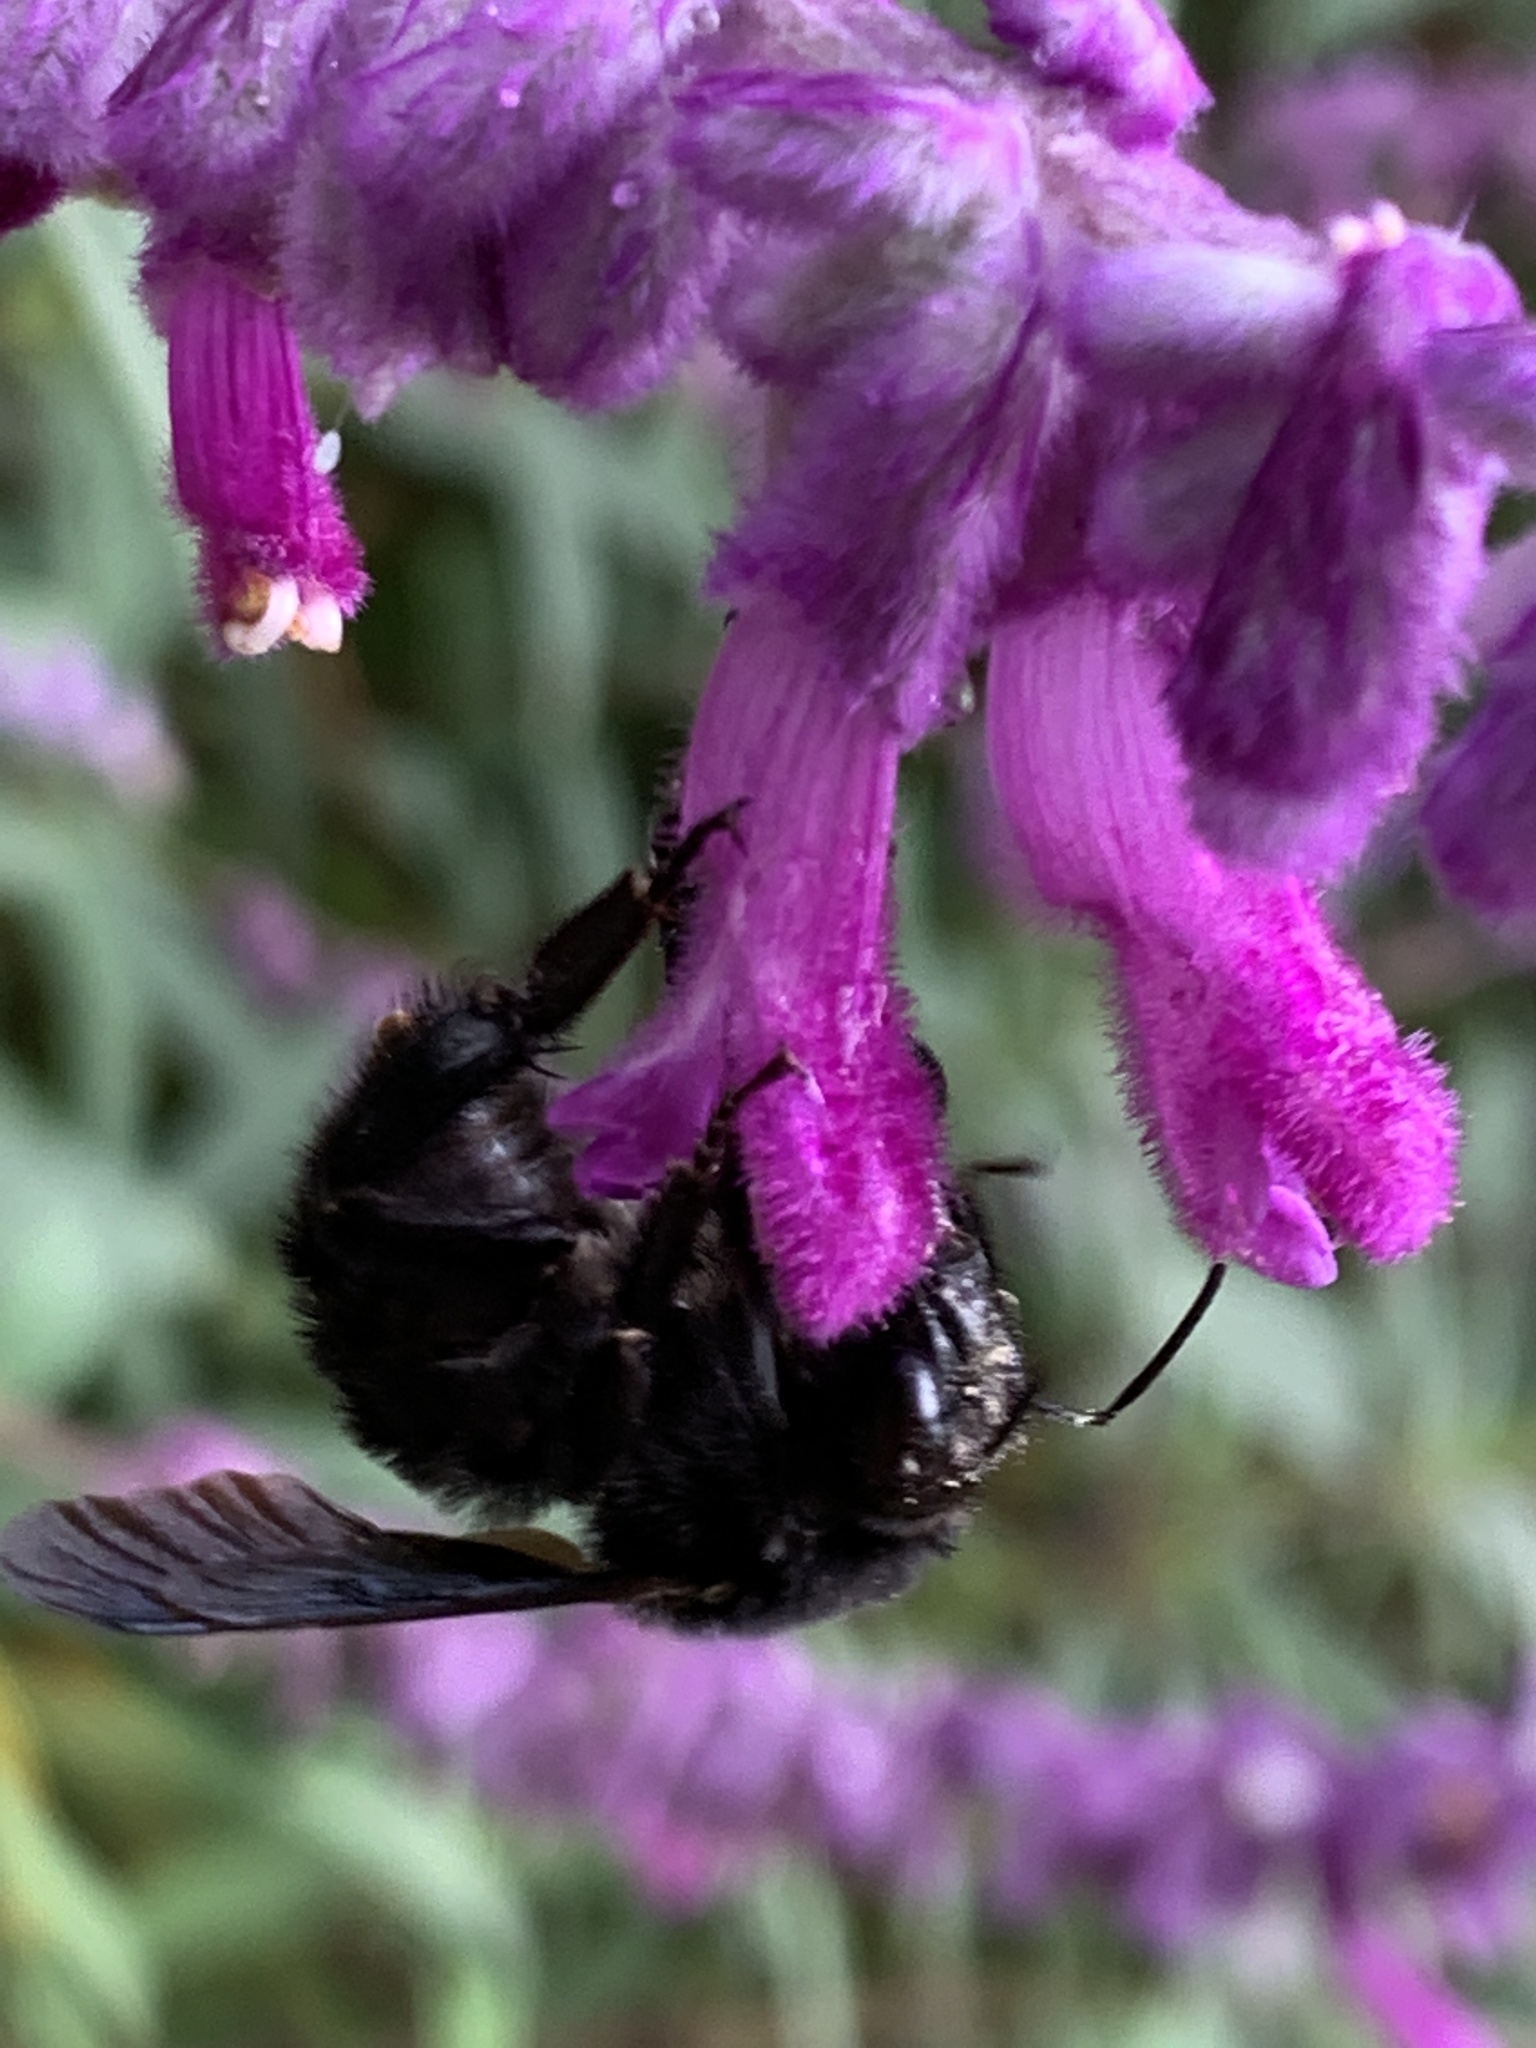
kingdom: Animalia
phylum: Arthropoda
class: Insecta
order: Hymenoptera
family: Apidae
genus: Bombus
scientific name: Bombus pauloensis
